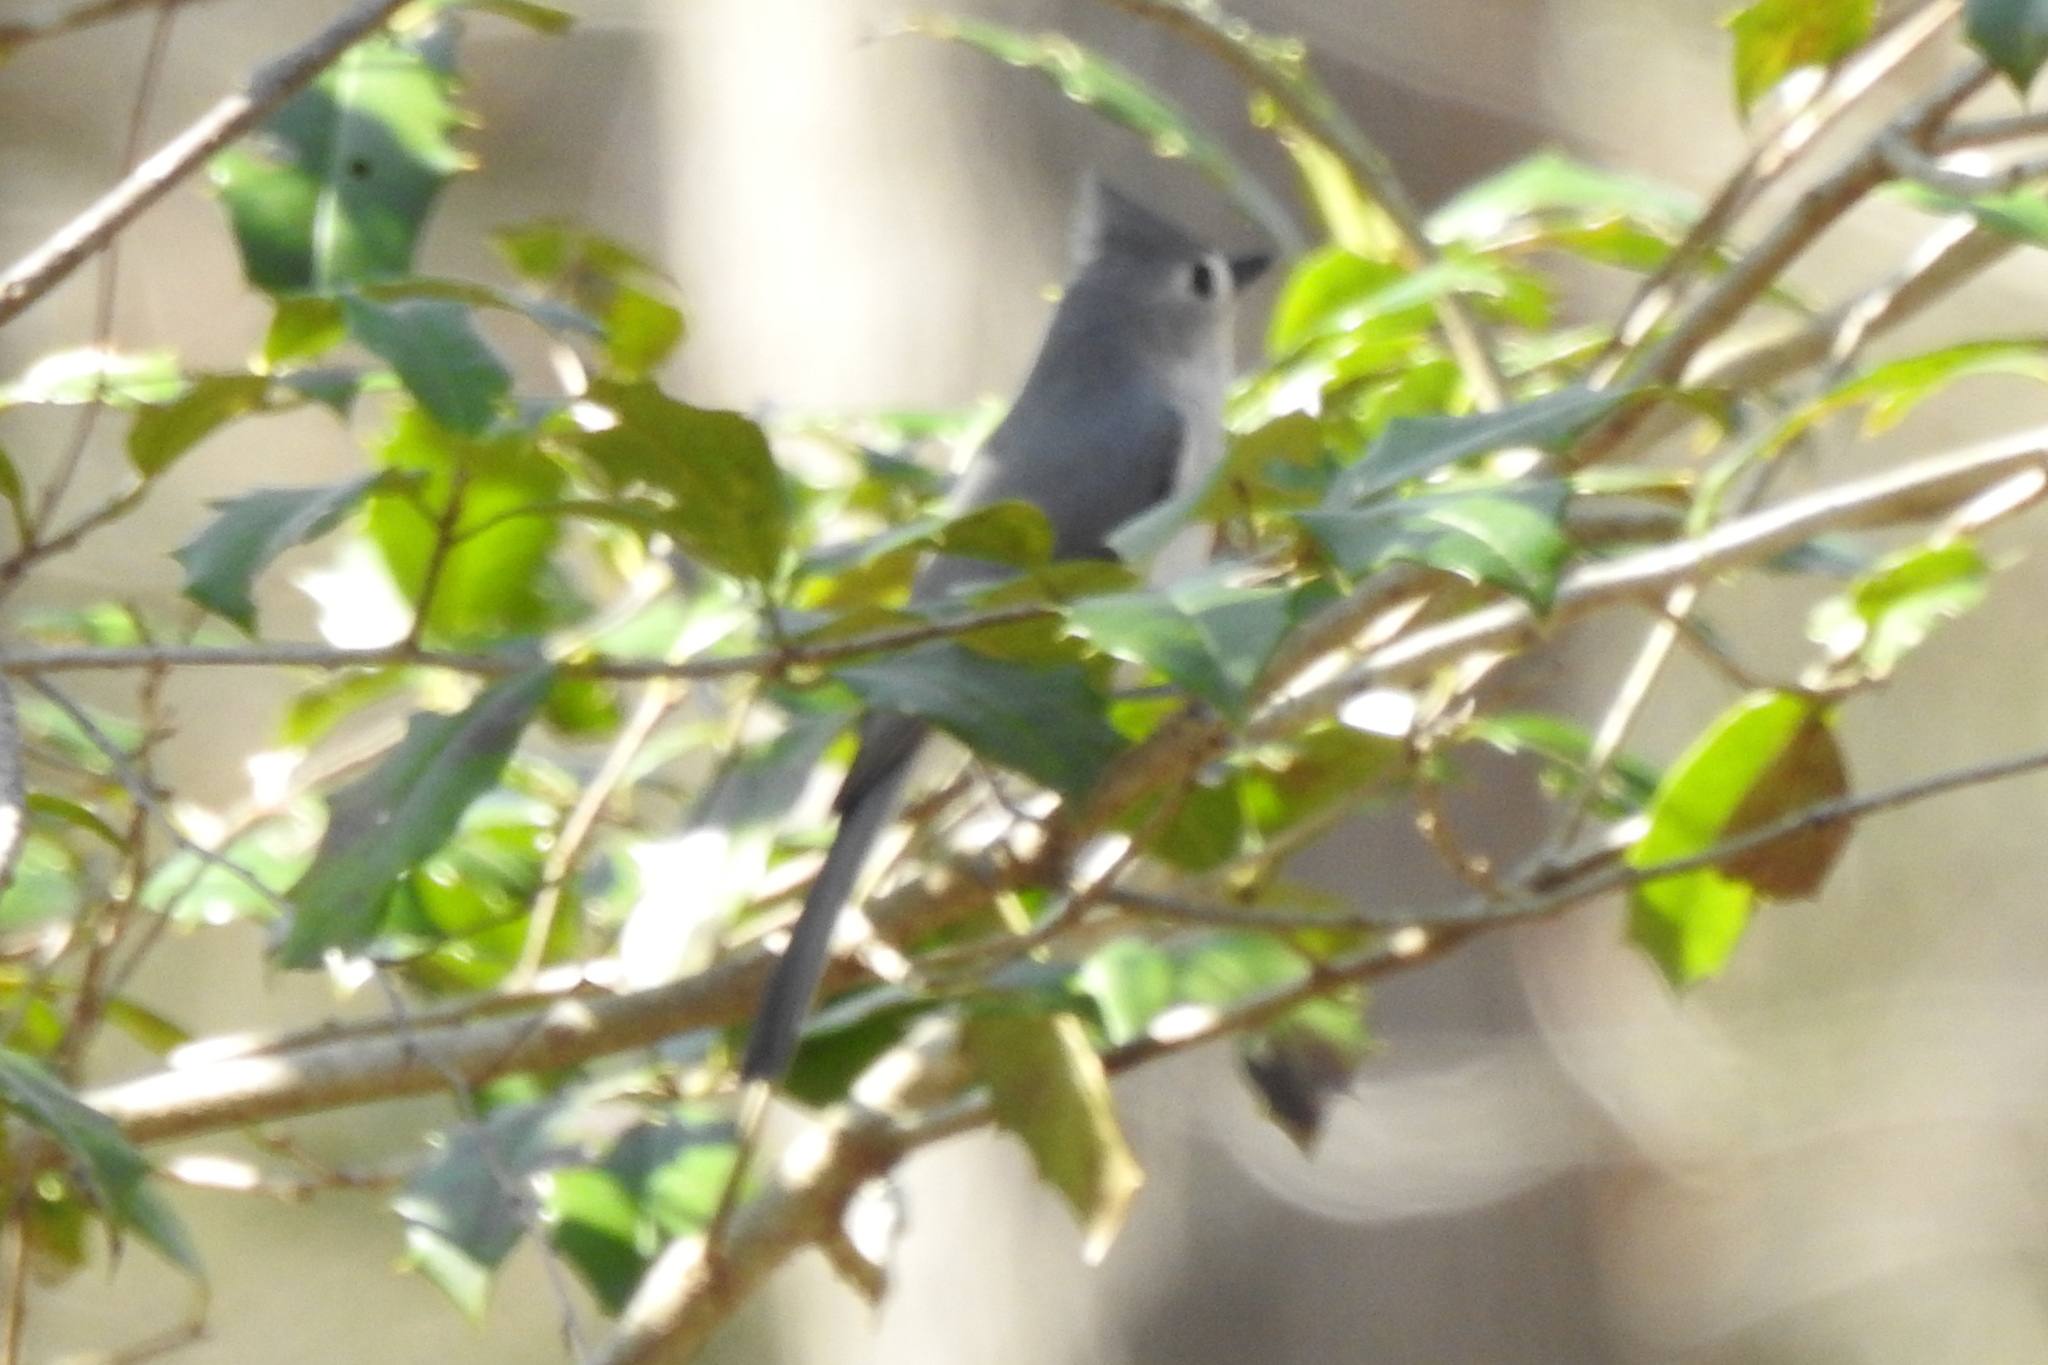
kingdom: Animalia
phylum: Chordata
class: Aves
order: Passeriformes
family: Paridae
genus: Baeolophus
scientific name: Baeolophus bicolor
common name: Tufted titmouse
